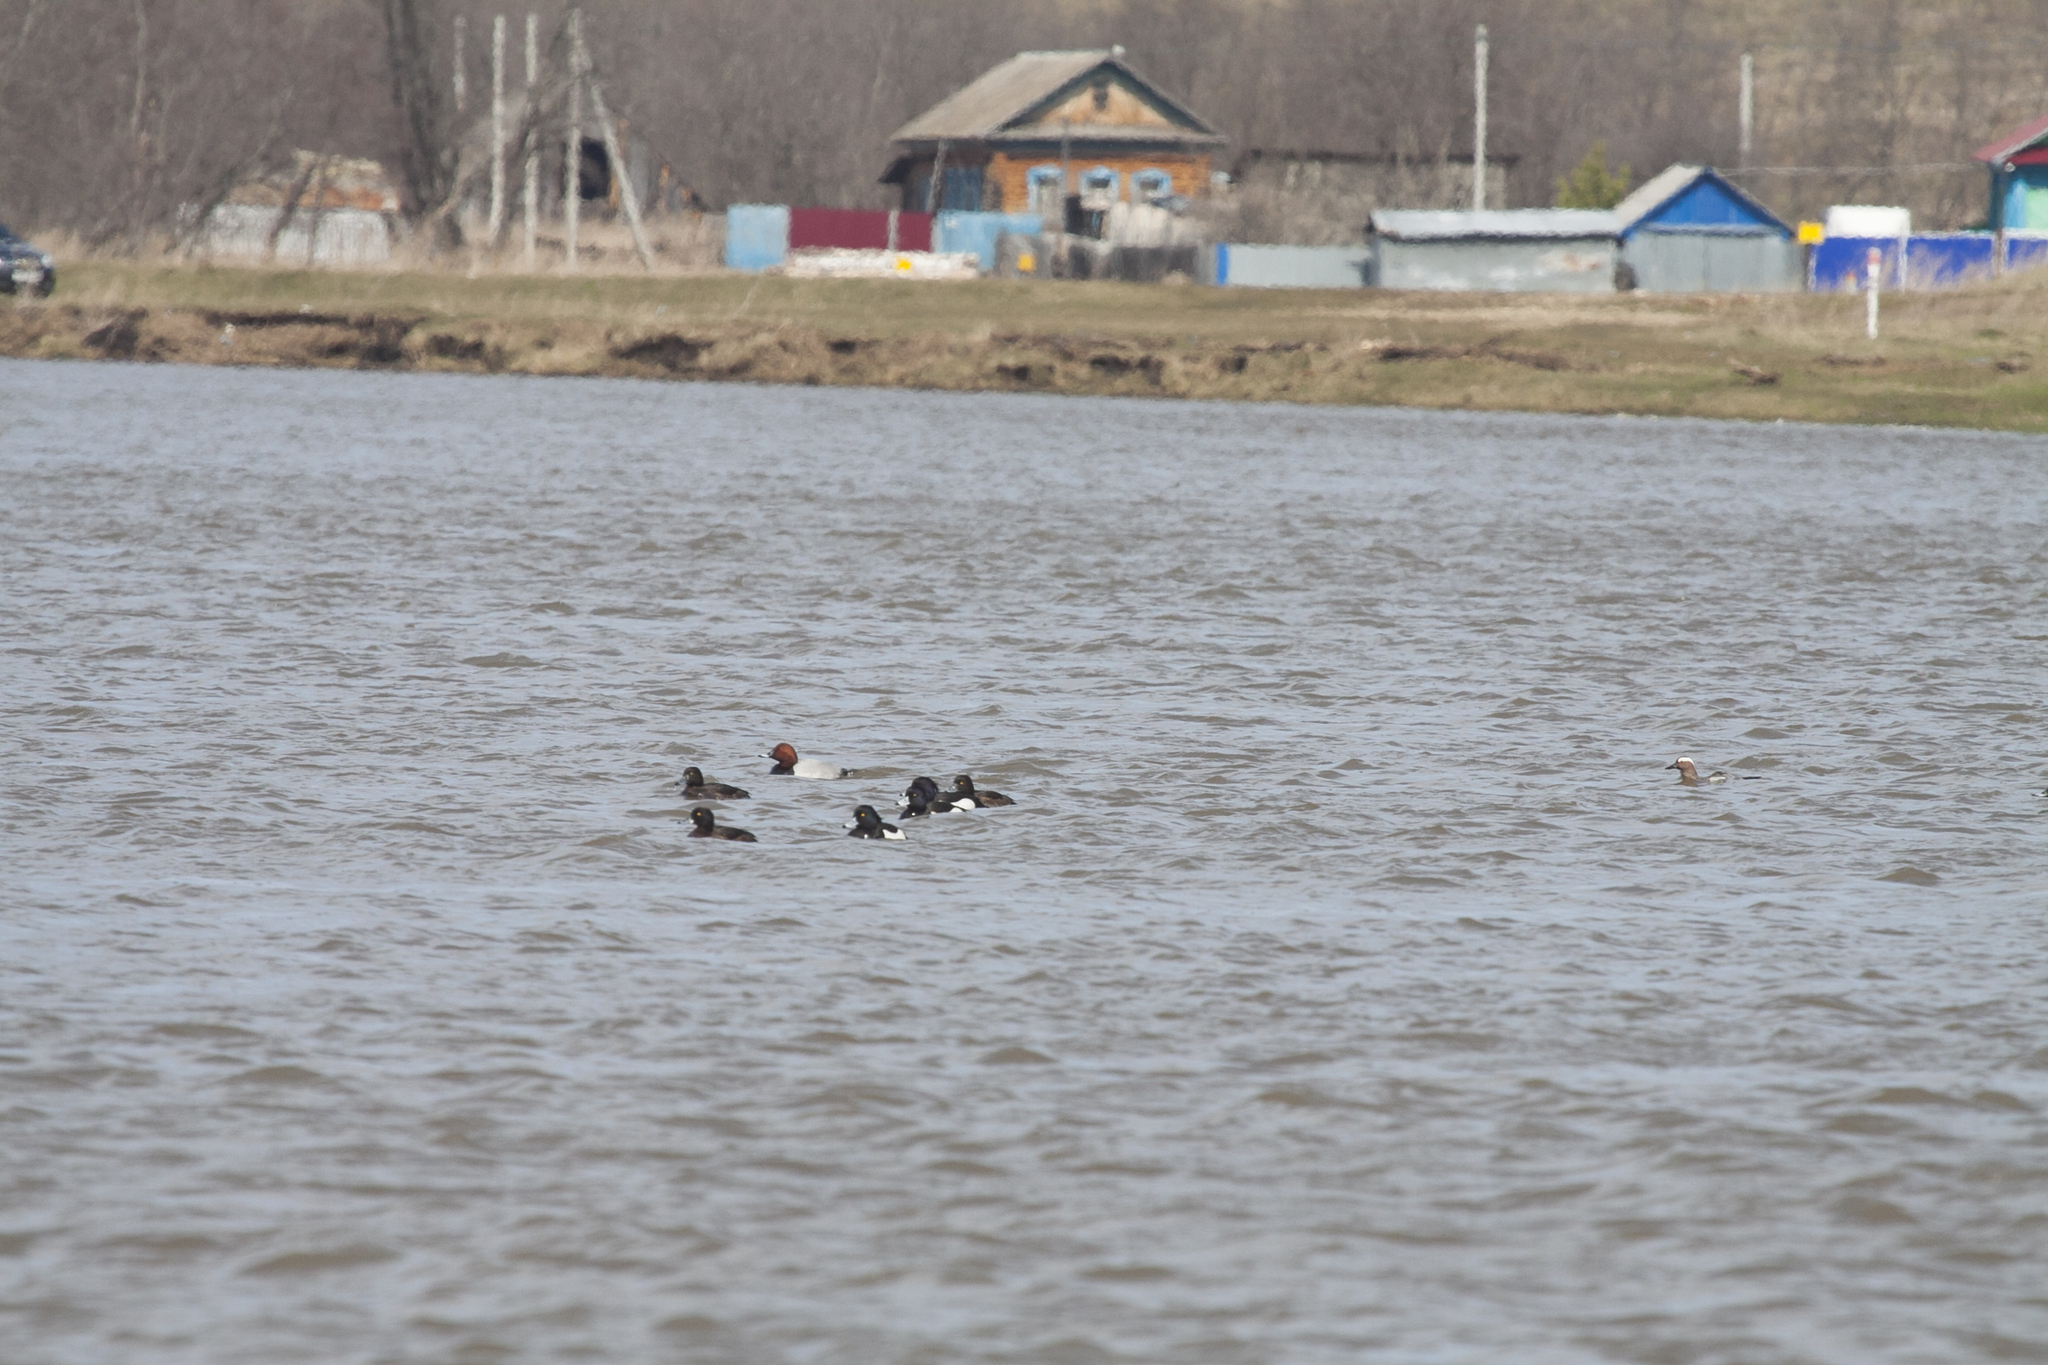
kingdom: Animalia
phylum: Chordata
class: Aves
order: Anseriformes
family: Anatidae
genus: Aythya
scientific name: Aythya fuligula
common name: Tufted duck
